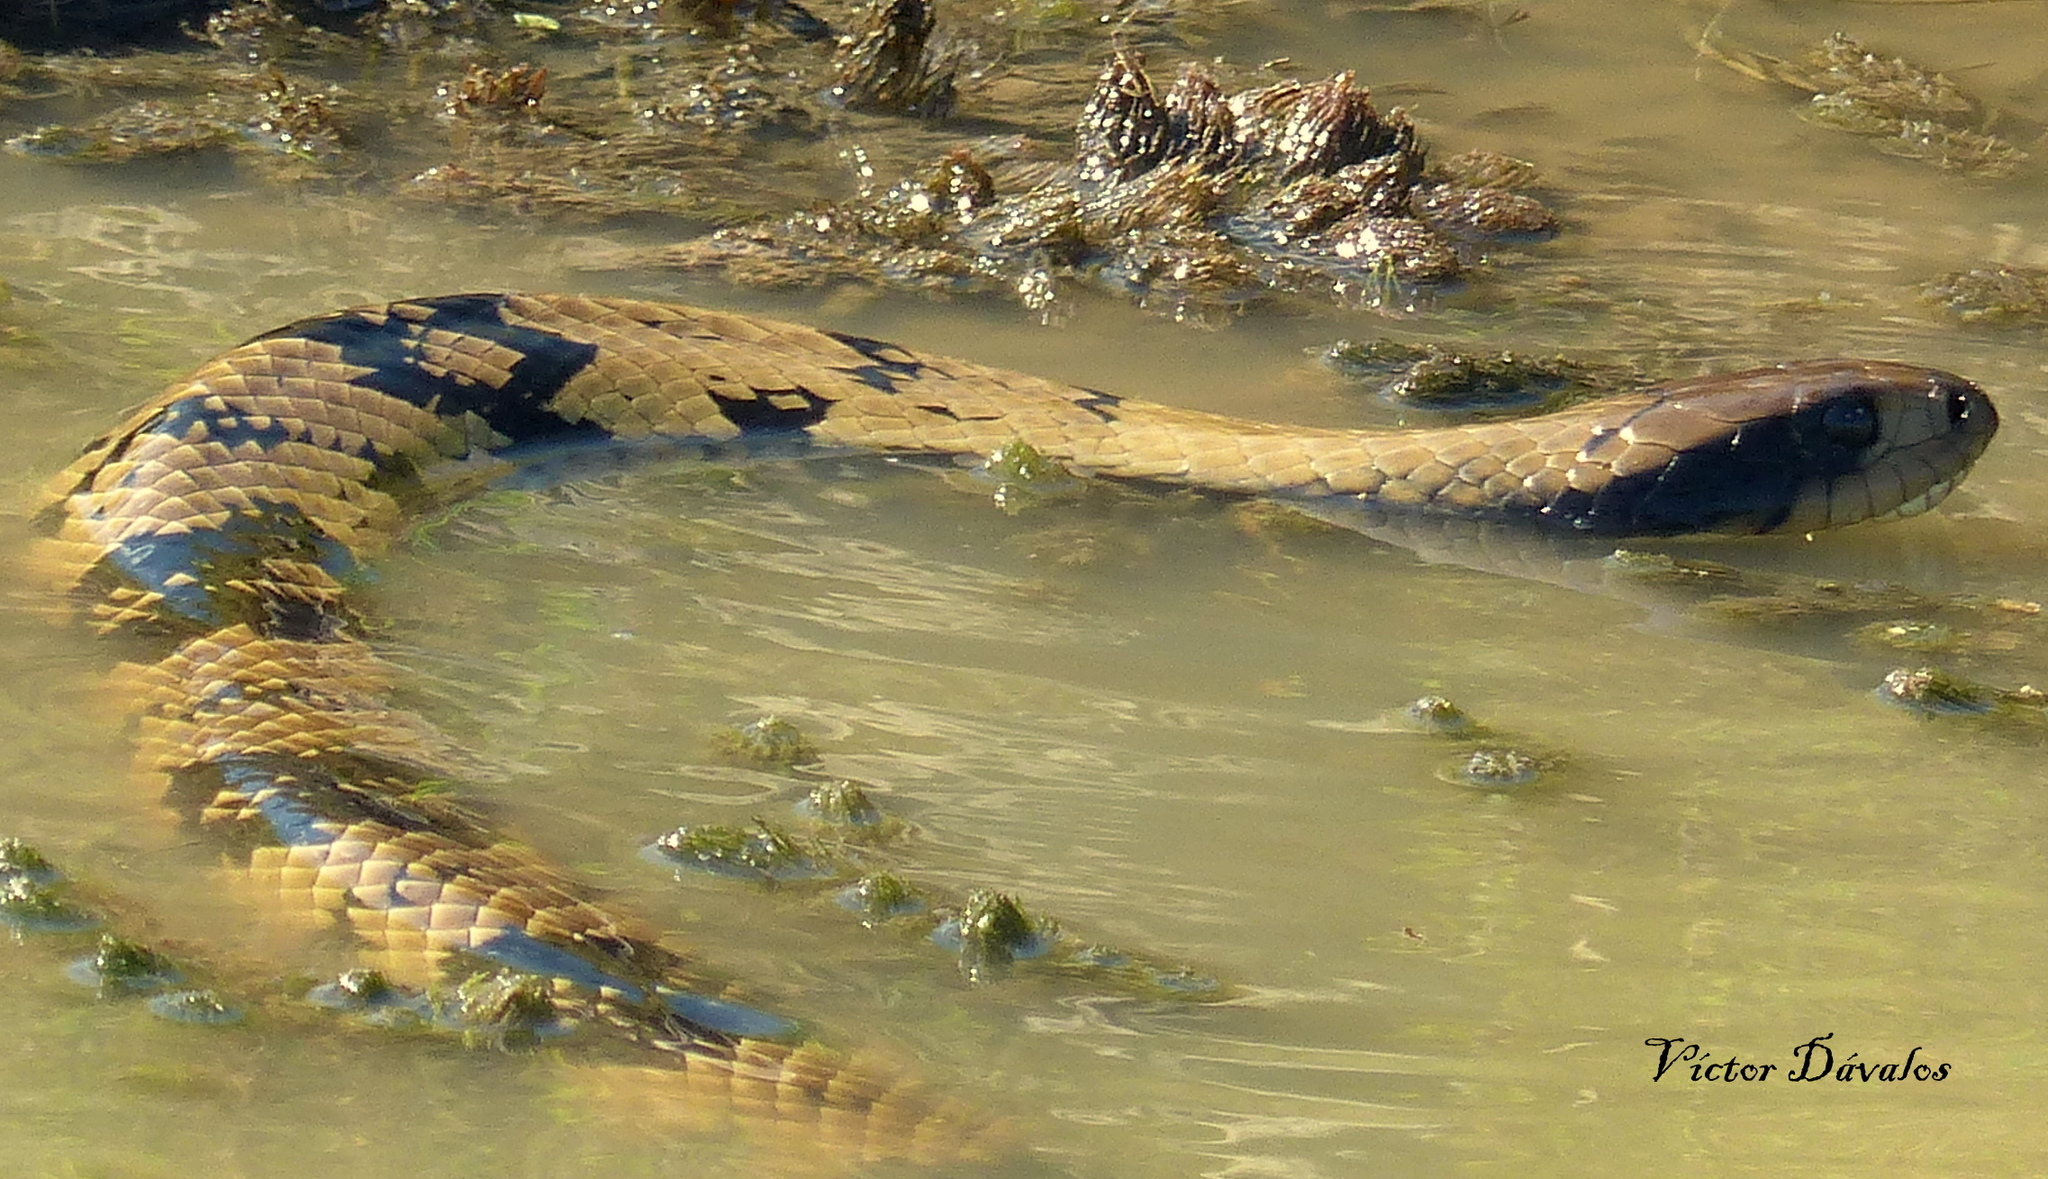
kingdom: Animalia
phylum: Chordata
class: Squamata
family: Colubridae
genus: Hydrodynastes
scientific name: Hydrodynastes gigas
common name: False water cobra
